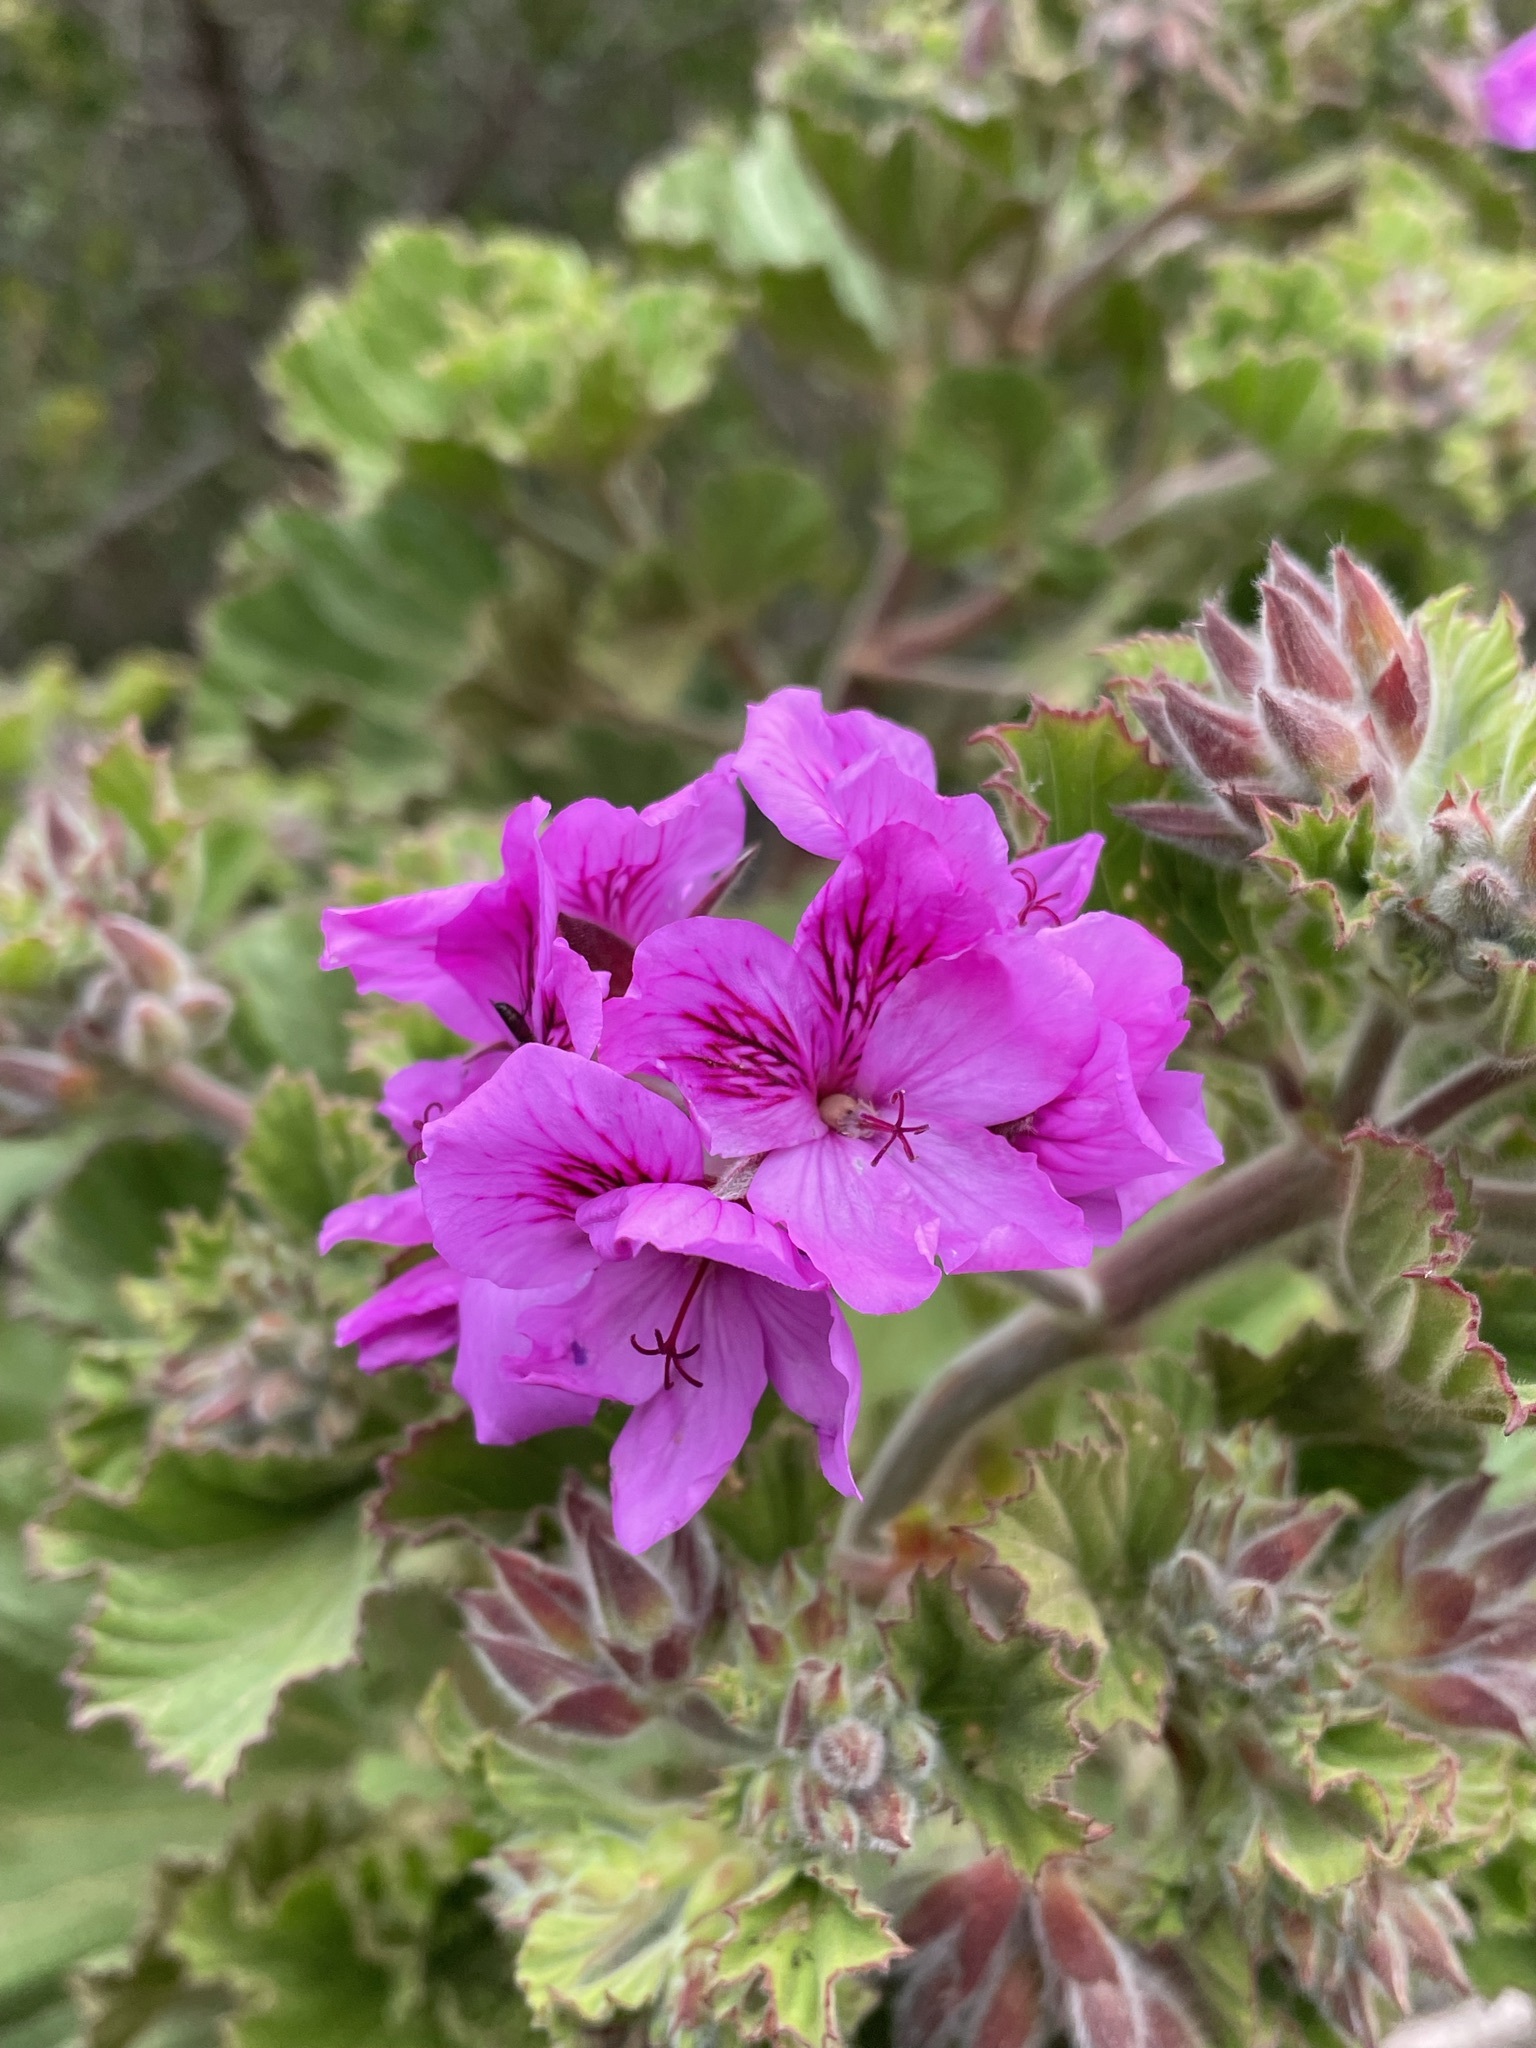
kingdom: Plantae
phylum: Tracheophyta
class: Magnoliopsida
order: Geraniales
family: Geraniaceae
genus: Pelargonium
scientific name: Pelargonium cucullatum
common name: Tree pelargonium
